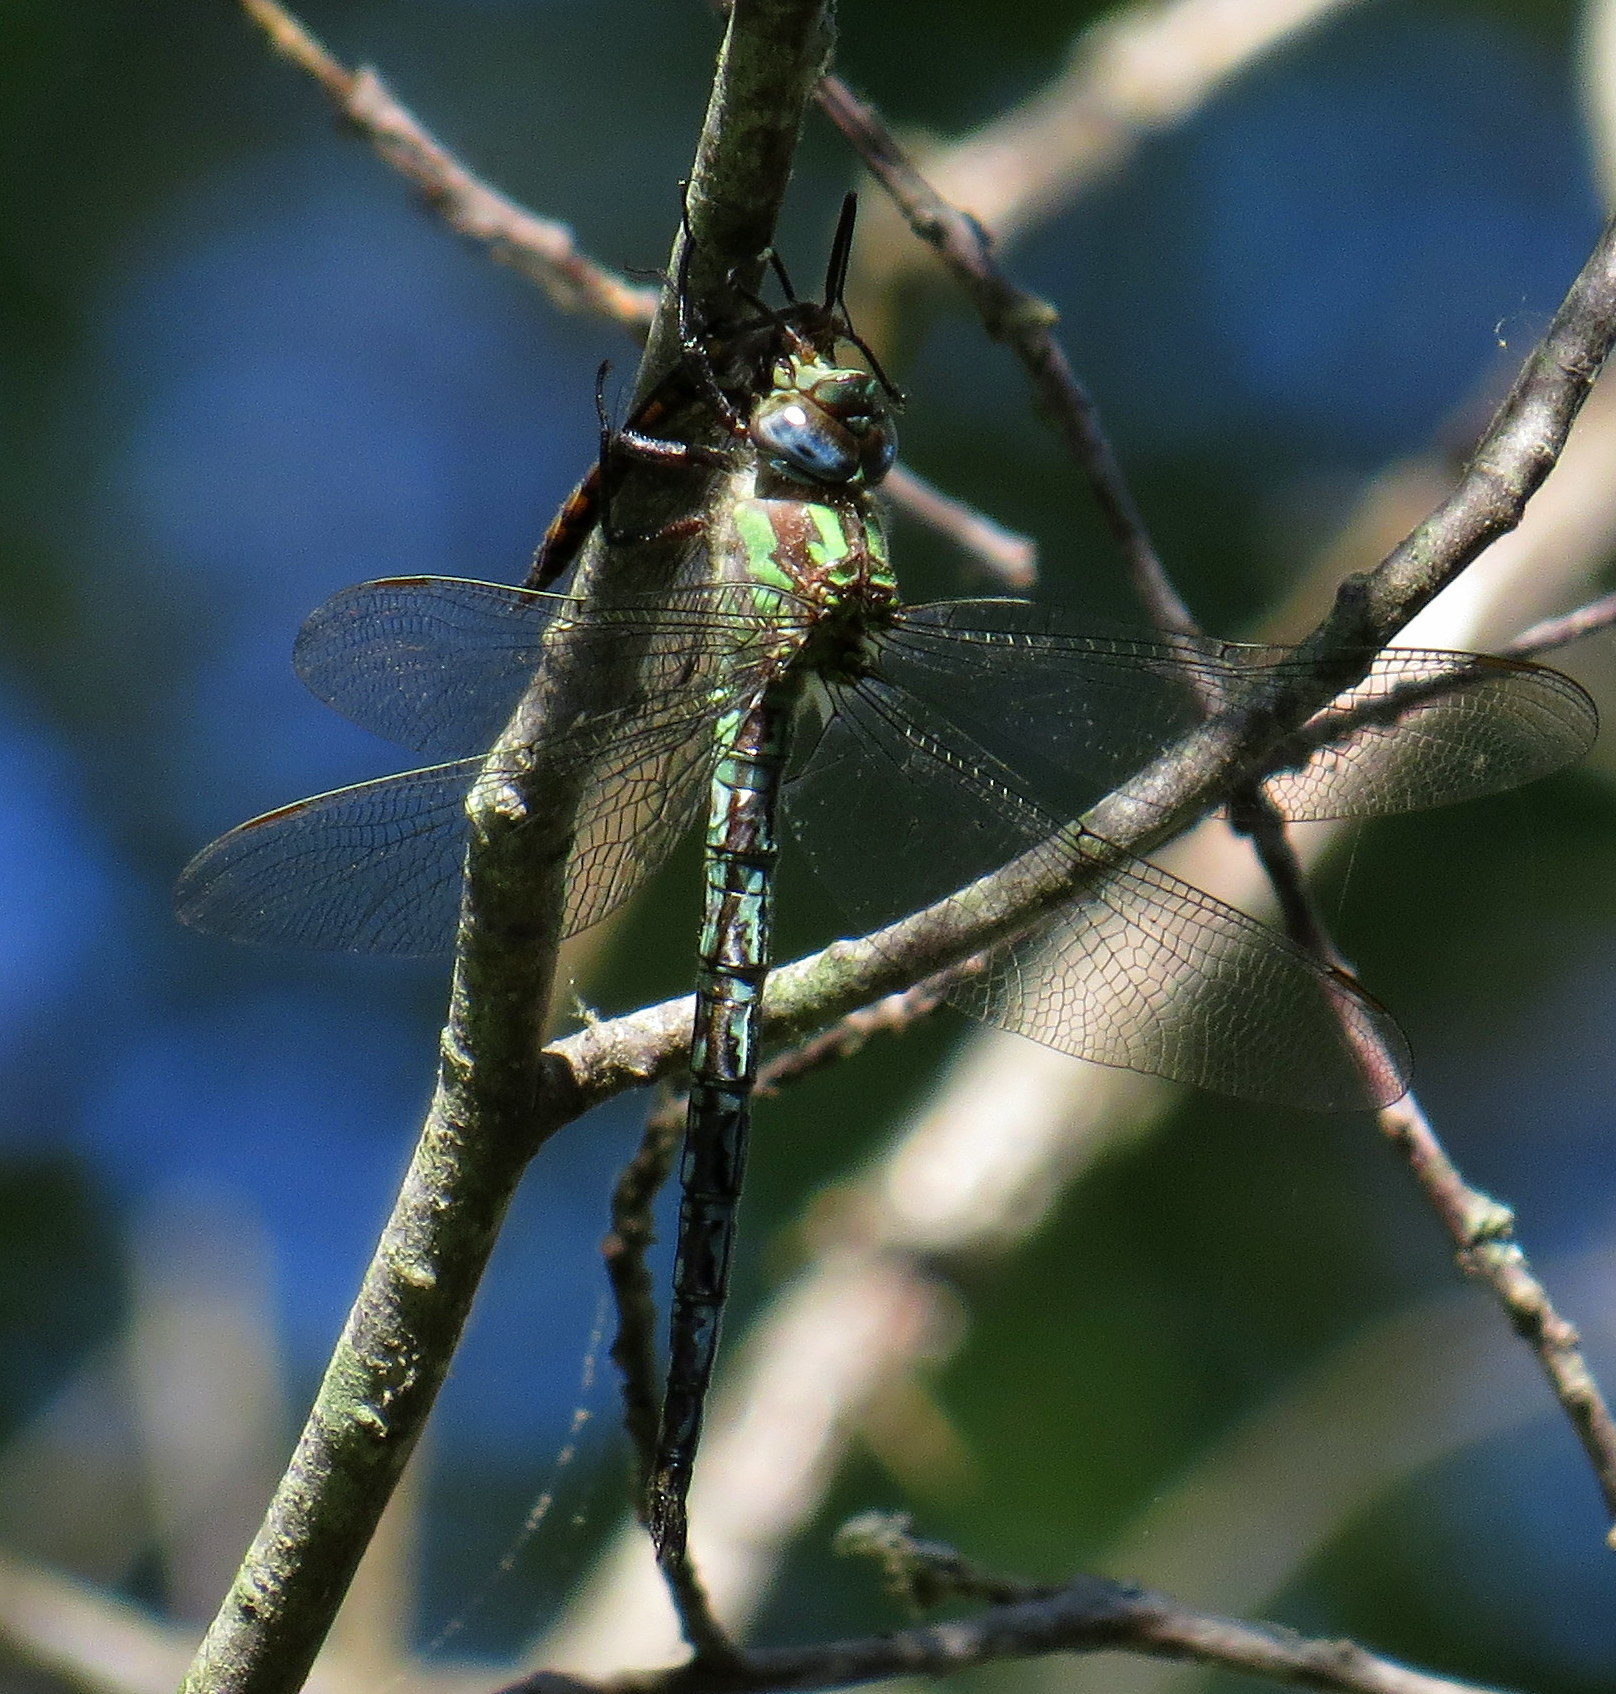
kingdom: Animalia
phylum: Arthropoda
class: Insecta
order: Odonata
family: Aeshnidae
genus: Nasiaeschna
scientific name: Nasiaeschna pentacantha
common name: Cyrano darner
